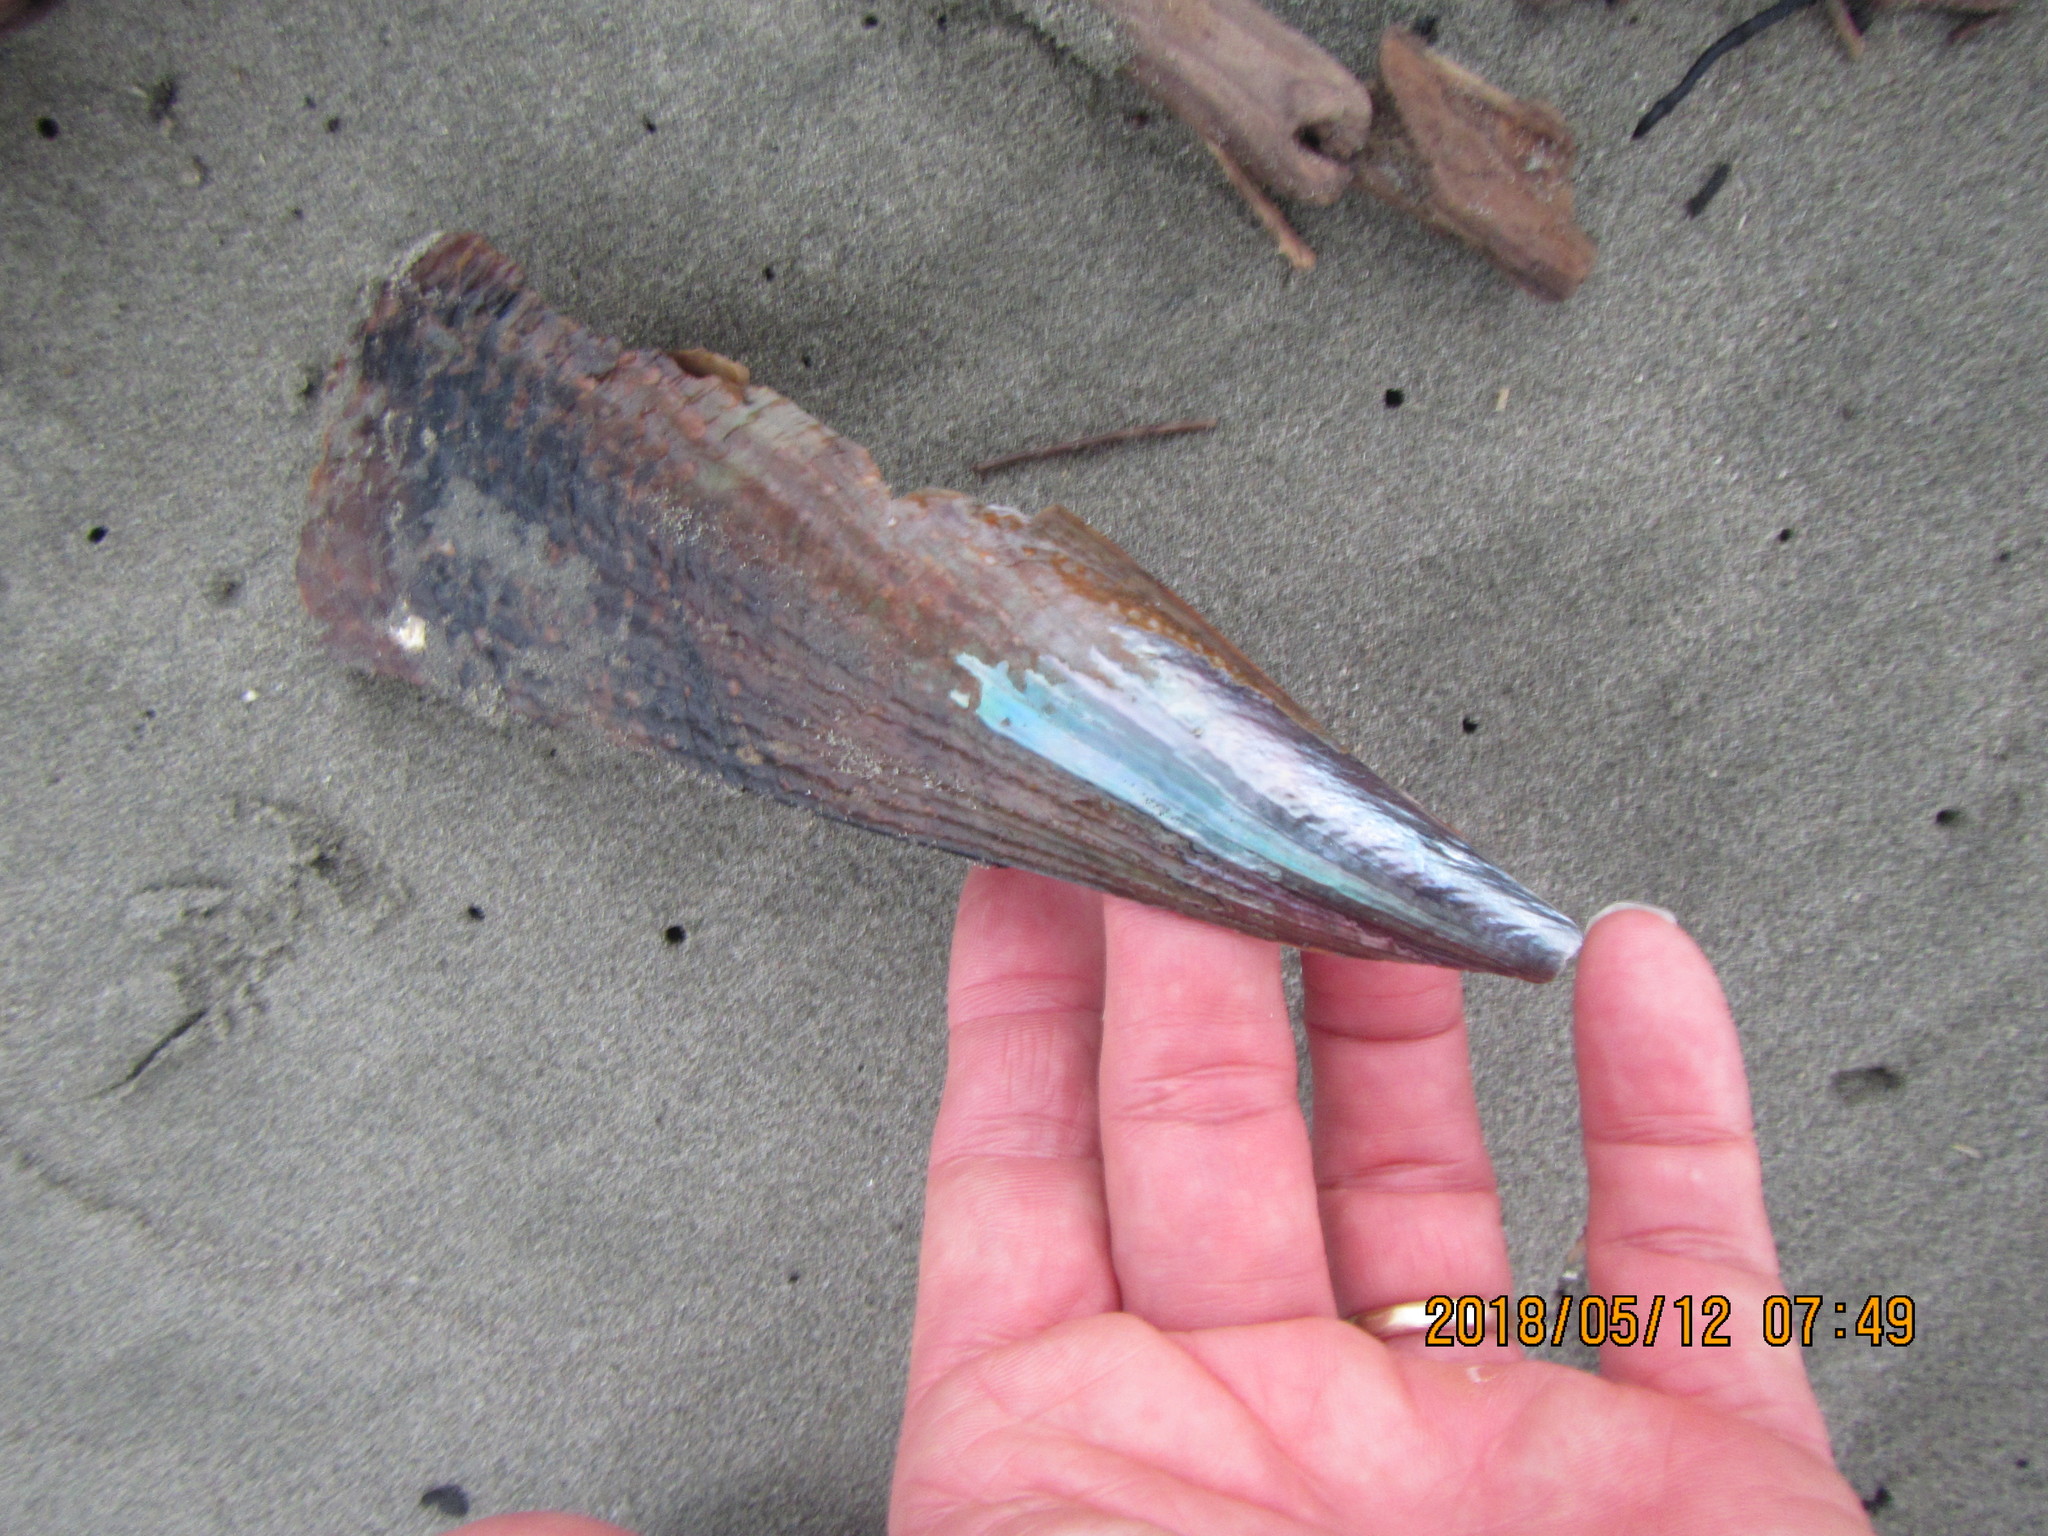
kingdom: Animalia
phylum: Mollusca
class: Bivalvia
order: Ostreida
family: Pinnidae
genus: Atrina
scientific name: Atrina zelandica
